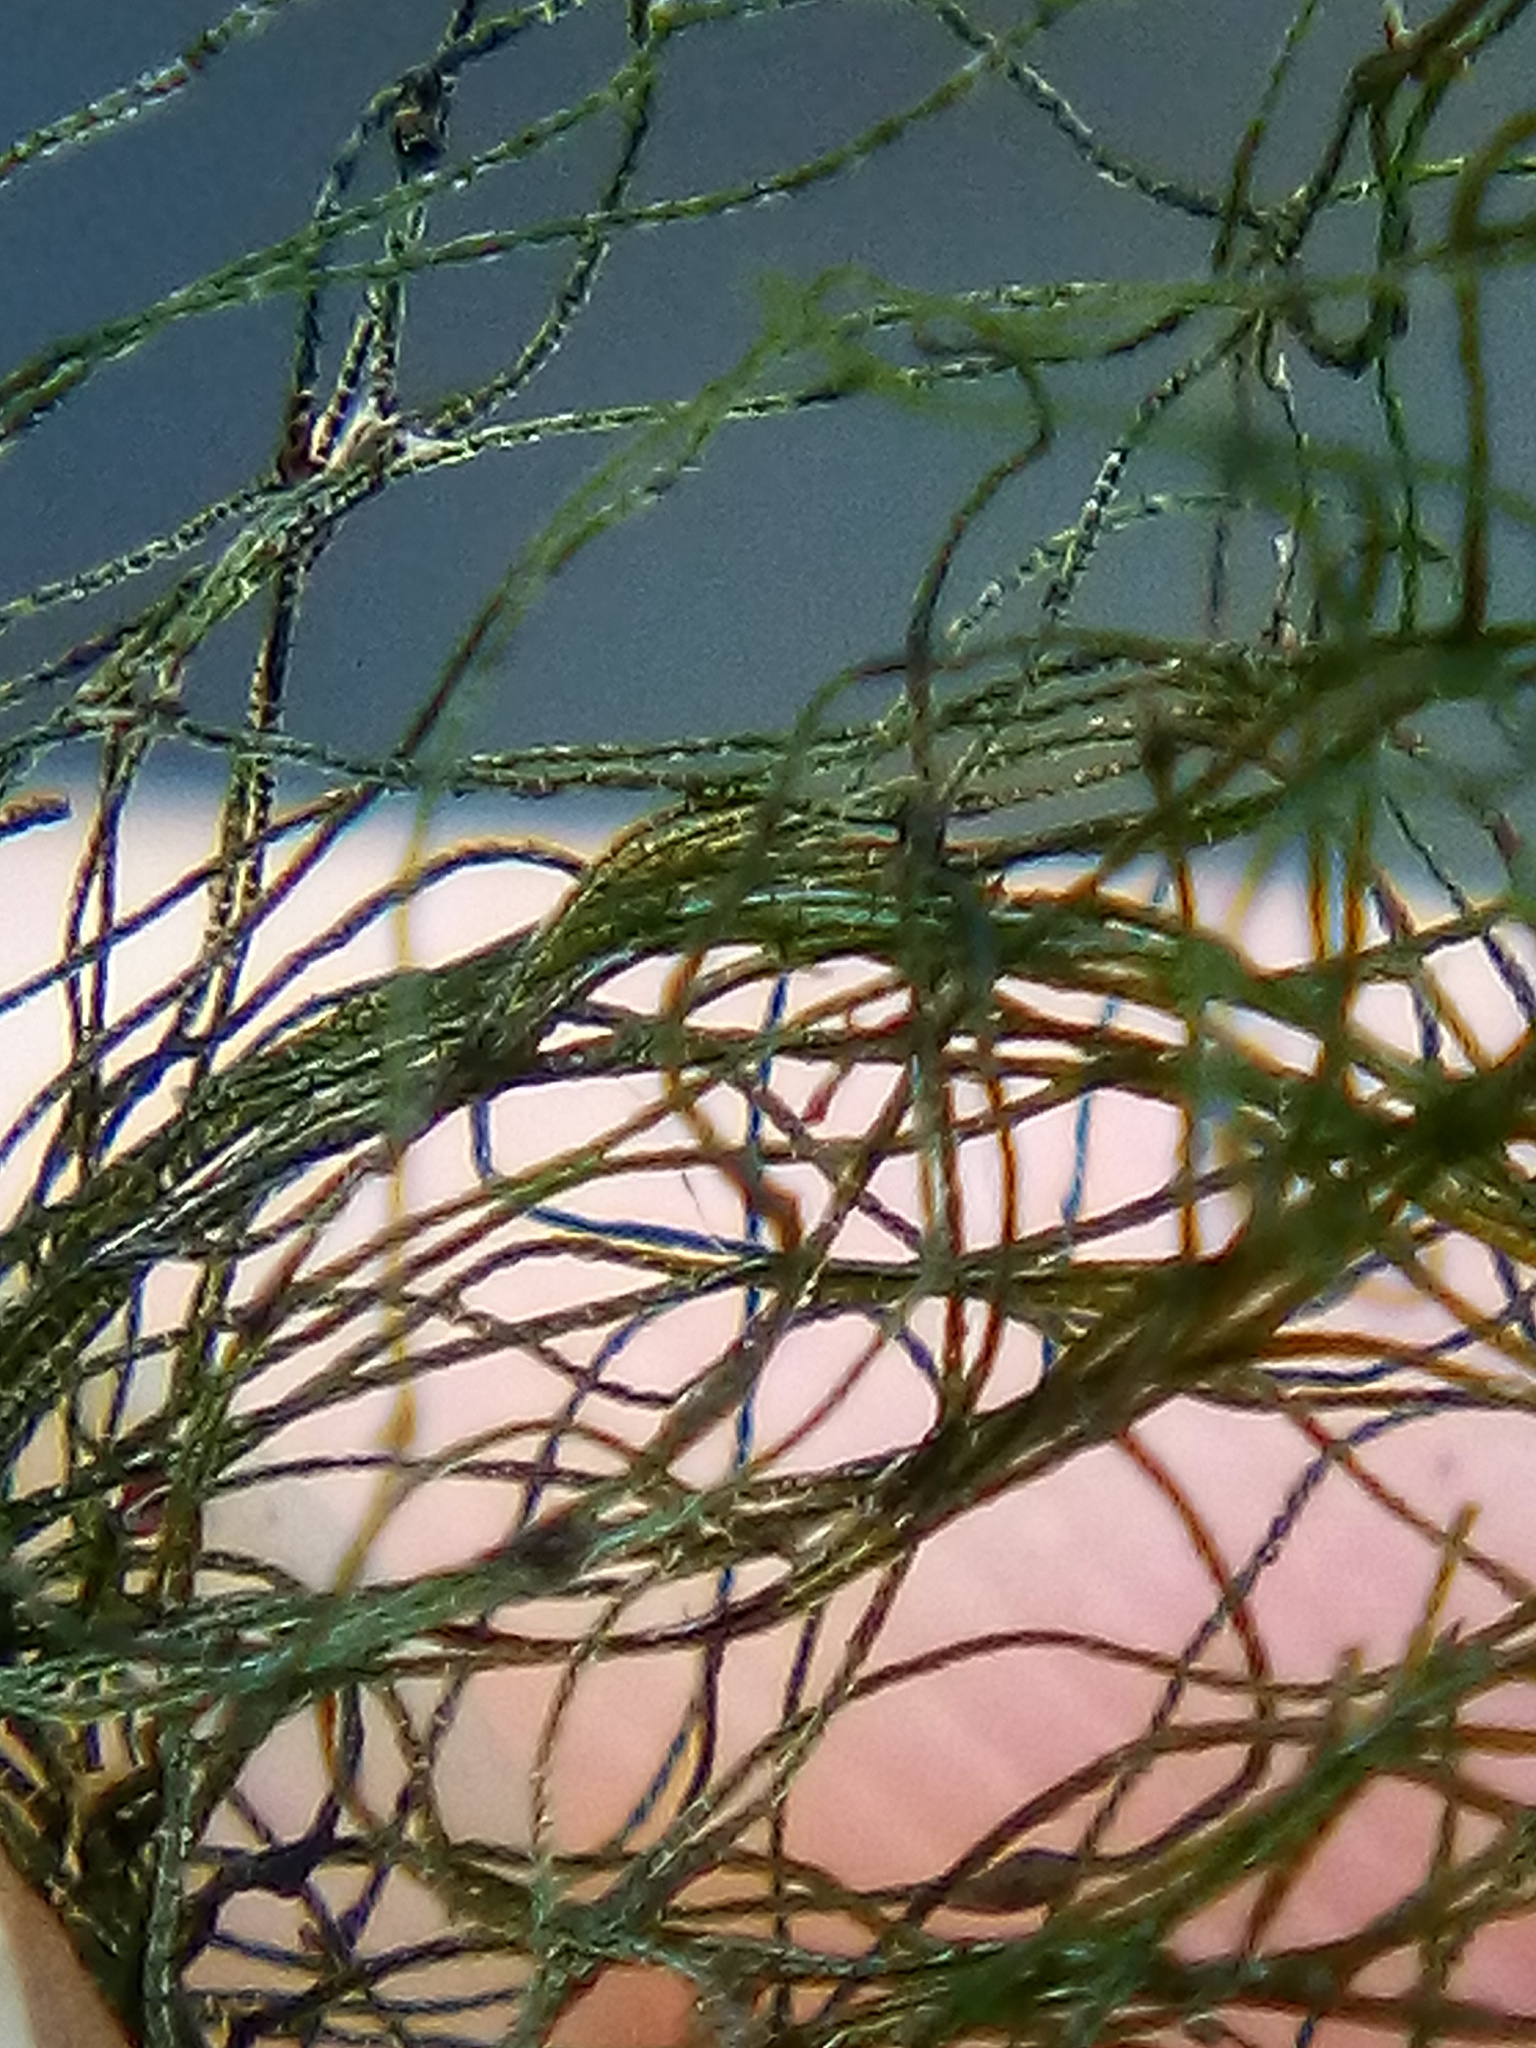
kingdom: Plantae
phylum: Chlorophyta
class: Ulvophyceae
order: Cladophorales
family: Cladophoraceae
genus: Chaetomorpha
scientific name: Chaetomorpha aerea
